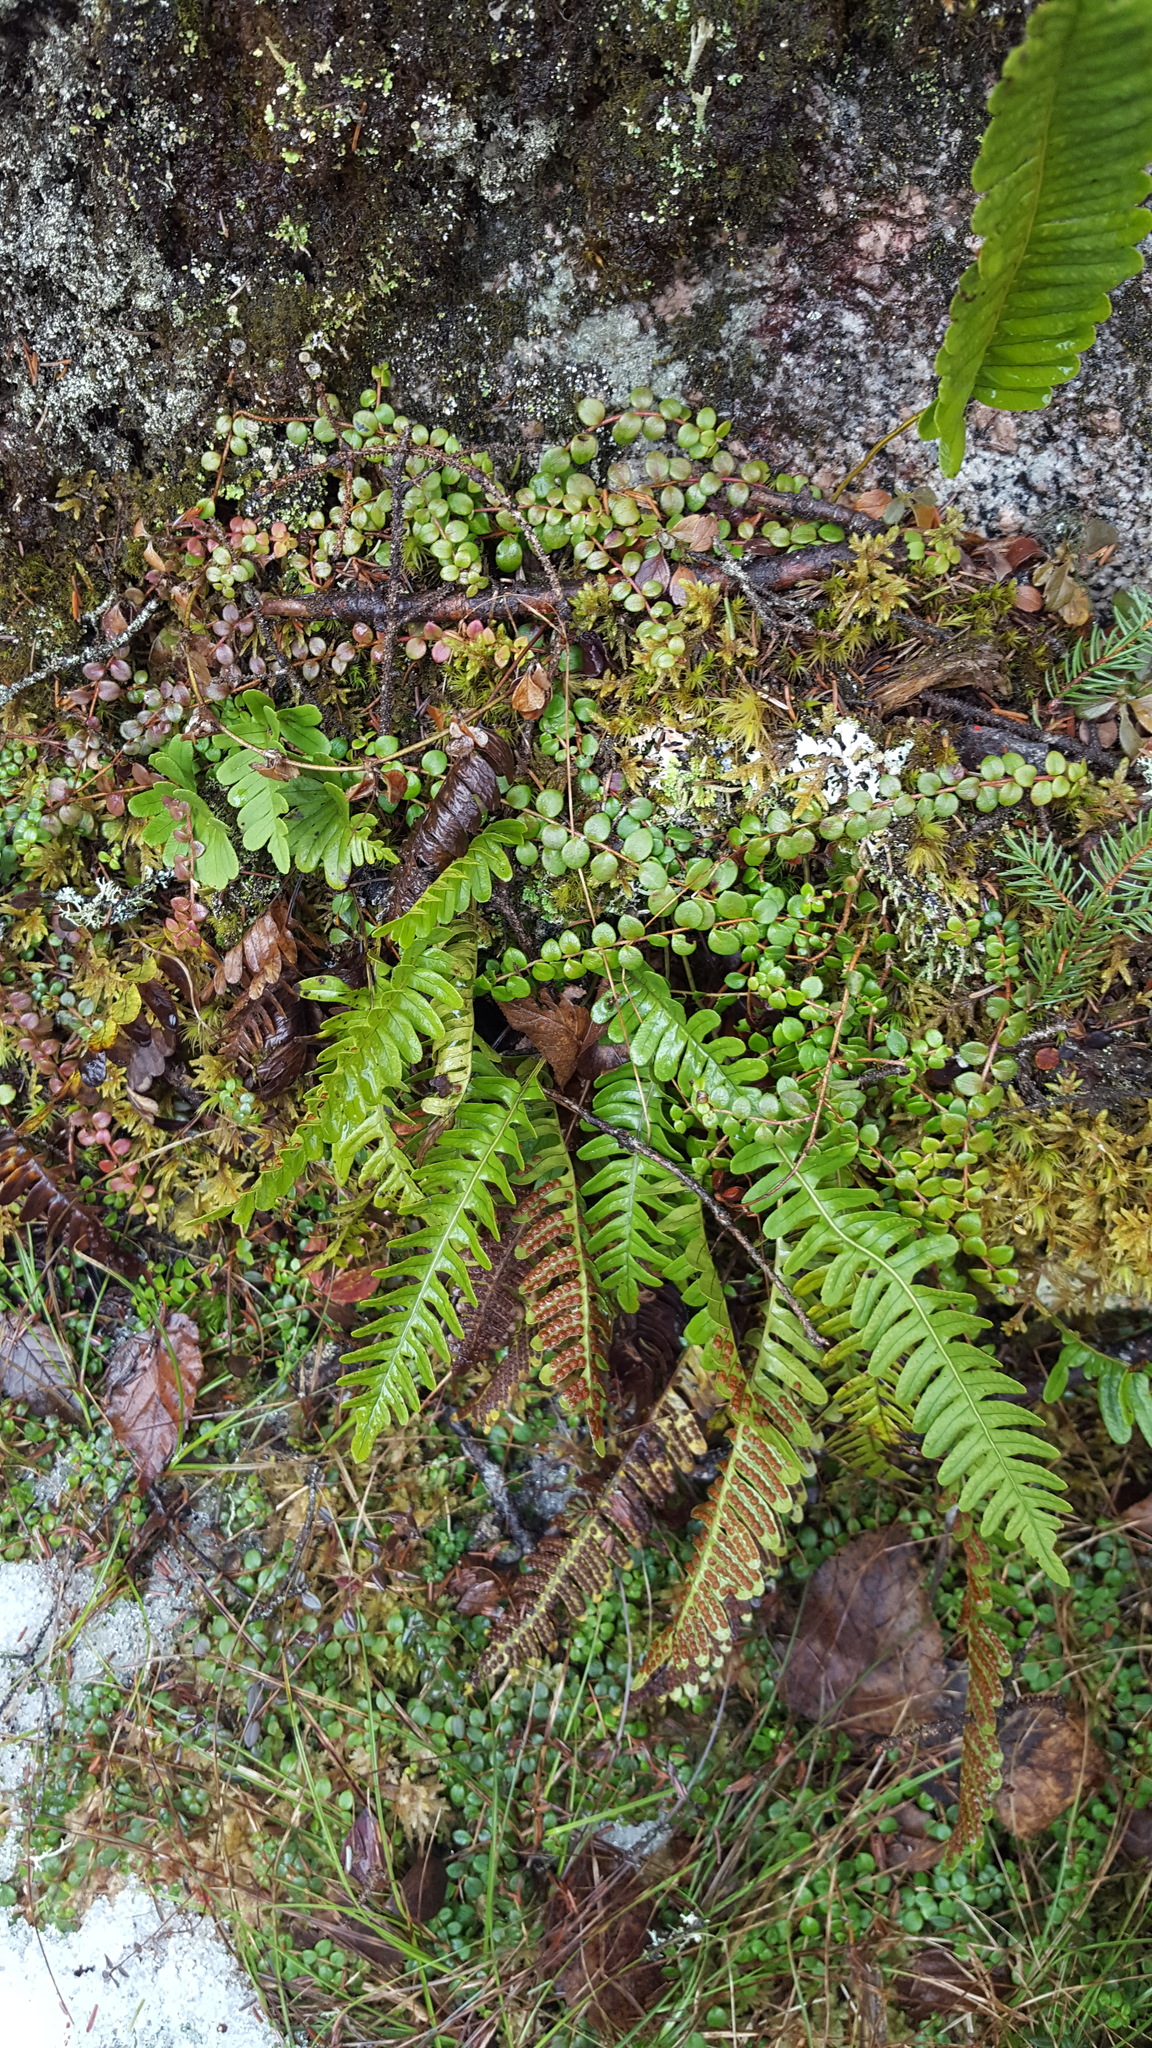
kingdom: Plantae
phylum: Tracheophyta
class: Polypodiopsida
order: Polypodiales
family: Polypodiaceae
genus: Polypodium
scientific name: Polypodium virginianum
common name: American wall fern
